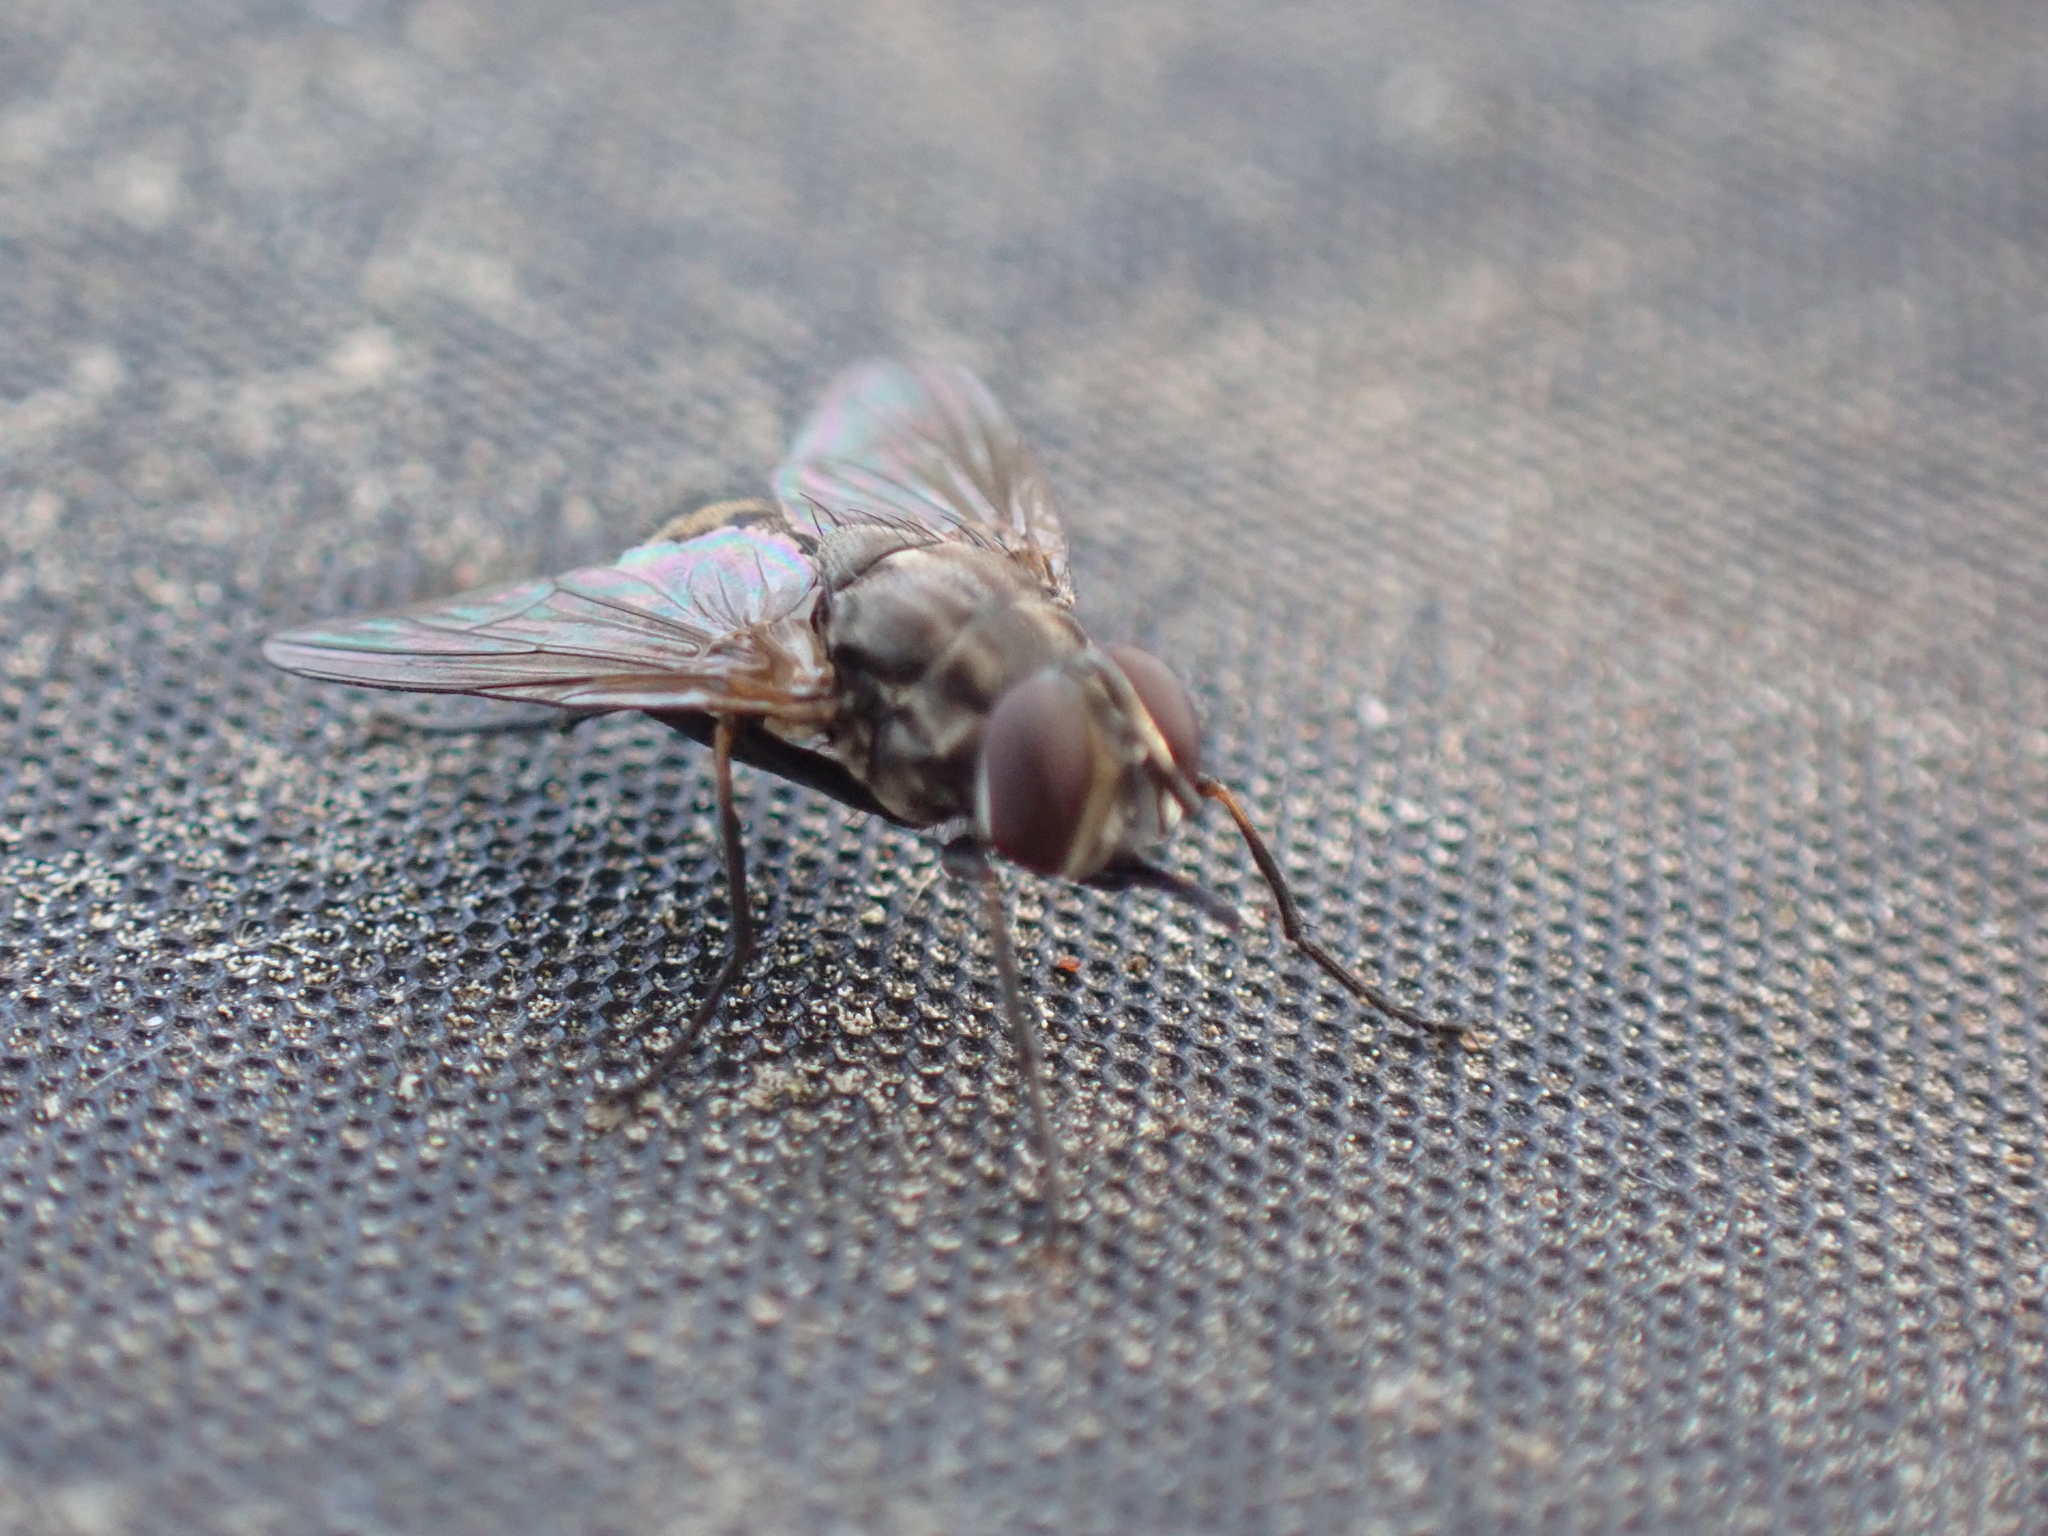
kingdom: Animalia
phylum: Arthropoda
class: Insecta
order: Diptera
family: Muscidae
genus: Stomoxys
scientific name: Stomoxys calcitrans
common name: Stable fly
